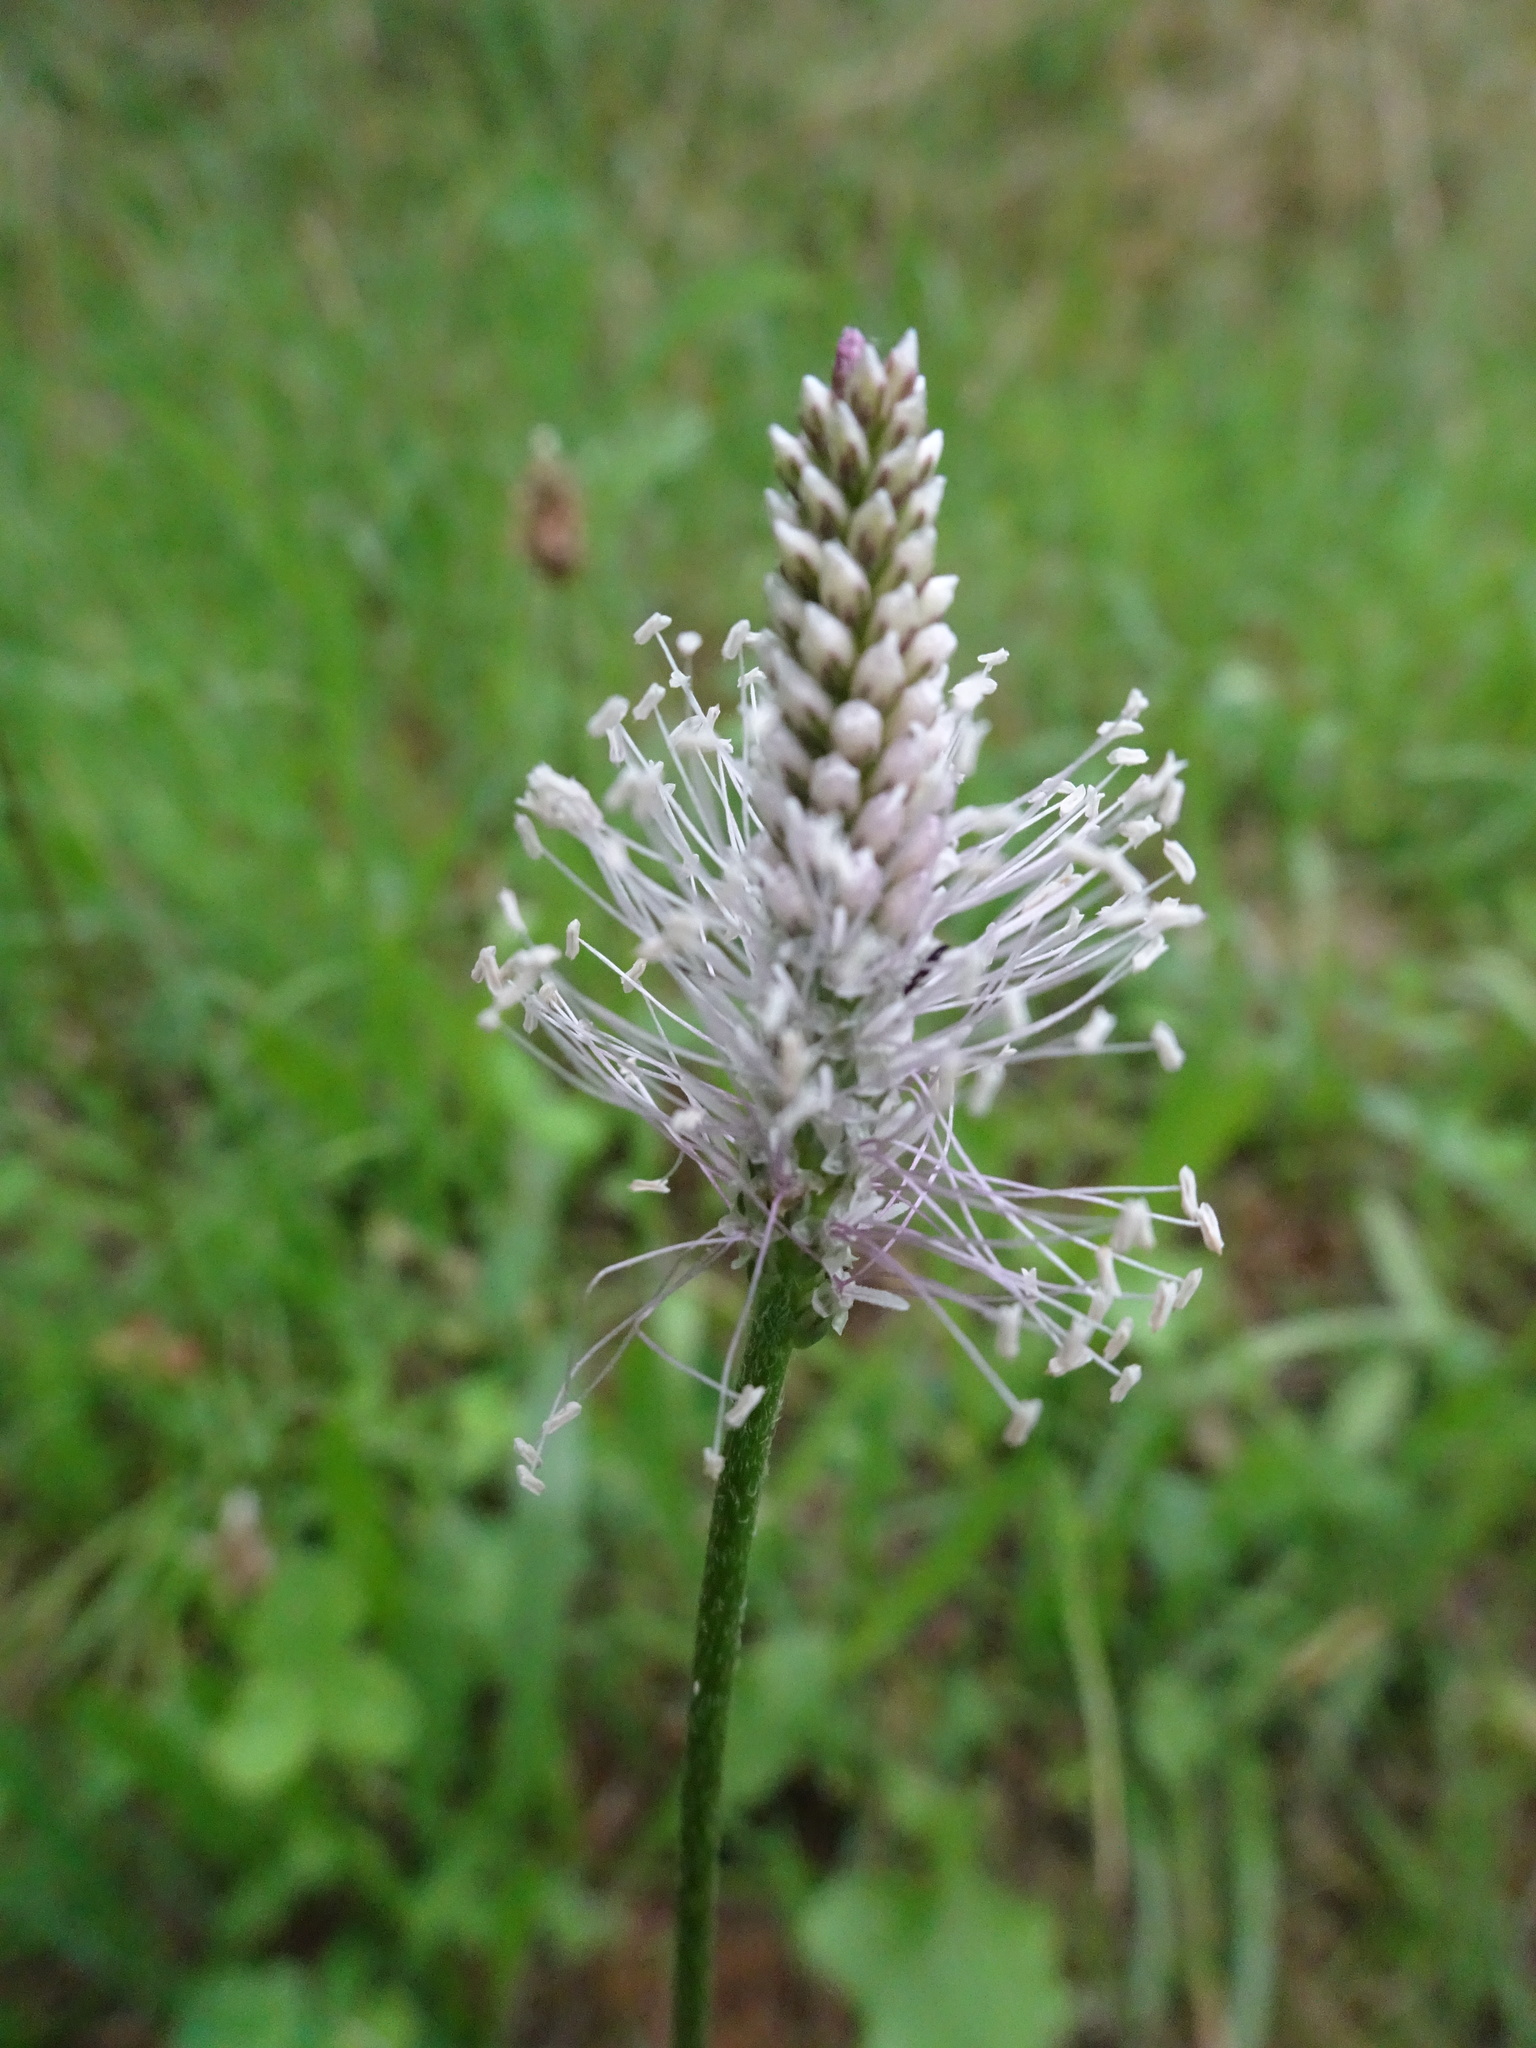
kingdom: Plantae
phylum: Tracheophyta
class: Magnoliopsida
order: Lamiales
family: Plantaginaceae
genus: Plantago
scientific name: Plantago media
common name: Hoary plantain
